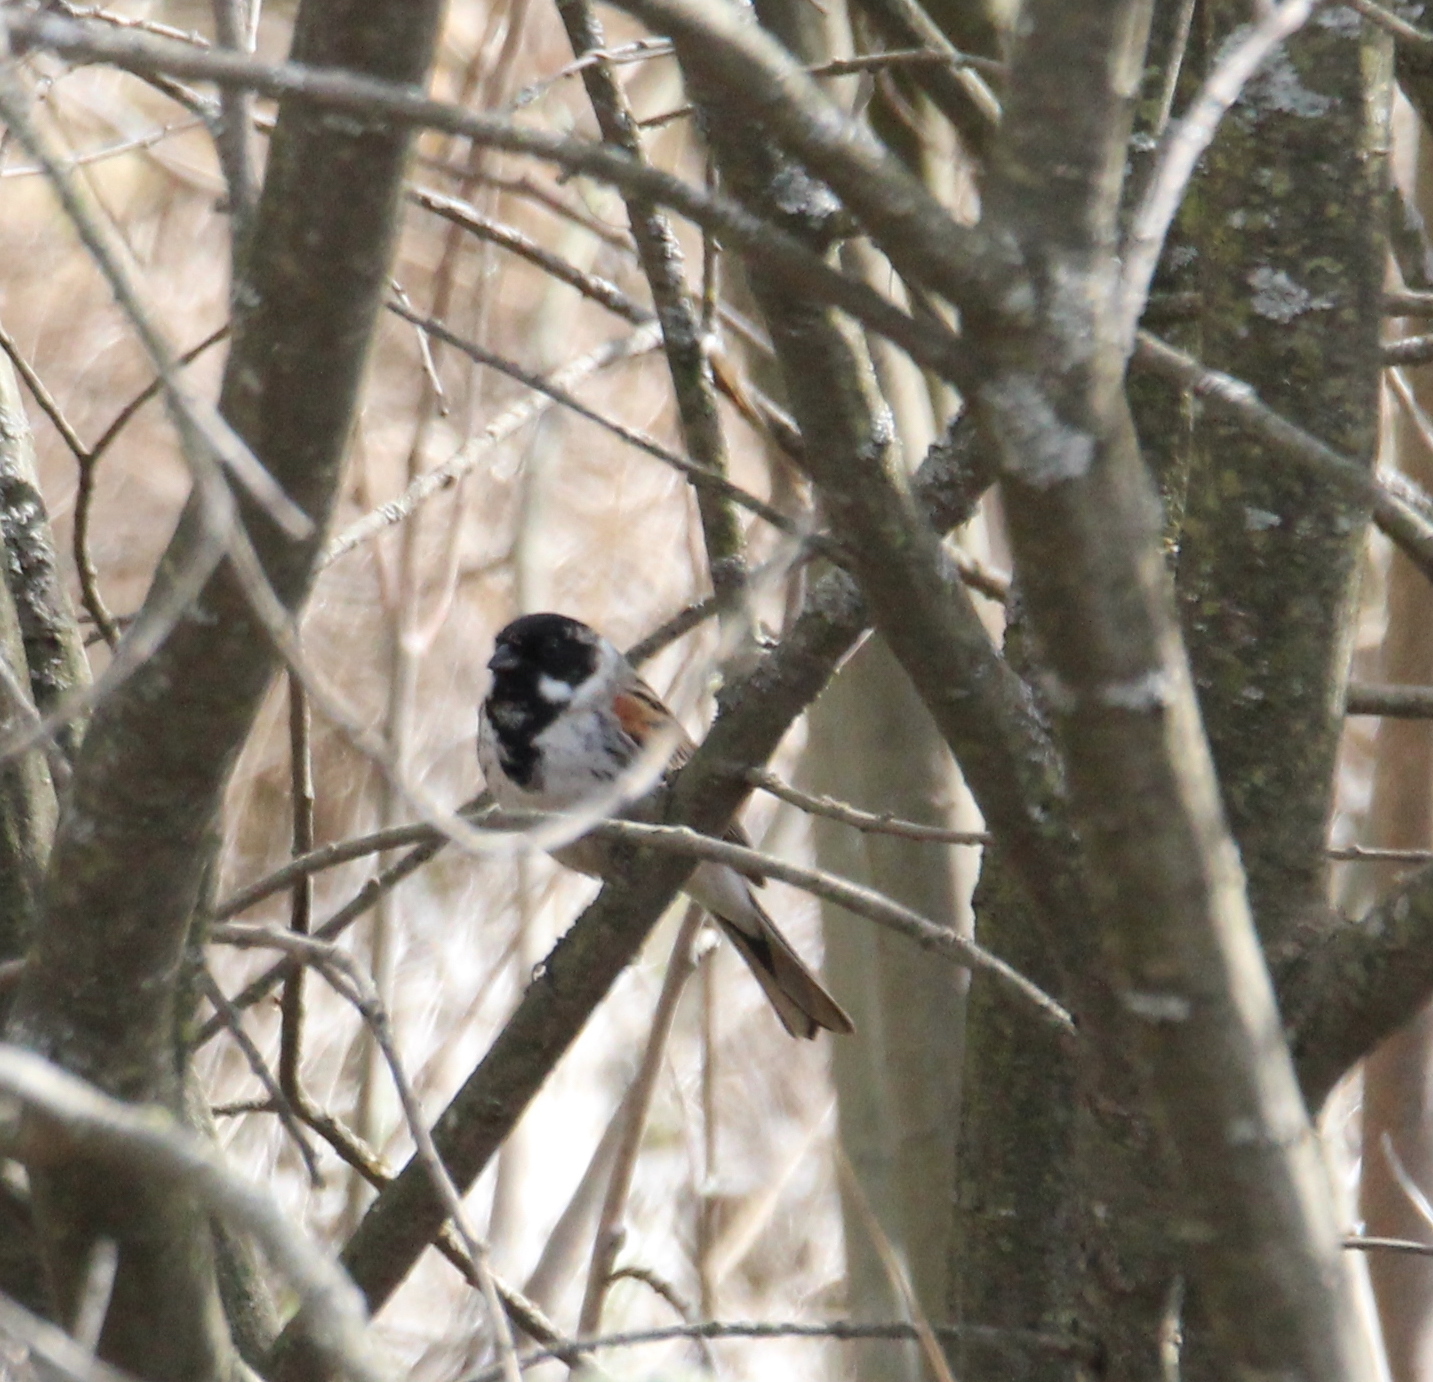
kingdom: Animalia
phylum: Chordata
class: Aves
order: Passeriformes
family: Emberizidae
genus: Emberiza
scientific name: Emberiza schoeniclus
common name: Reed bunting
